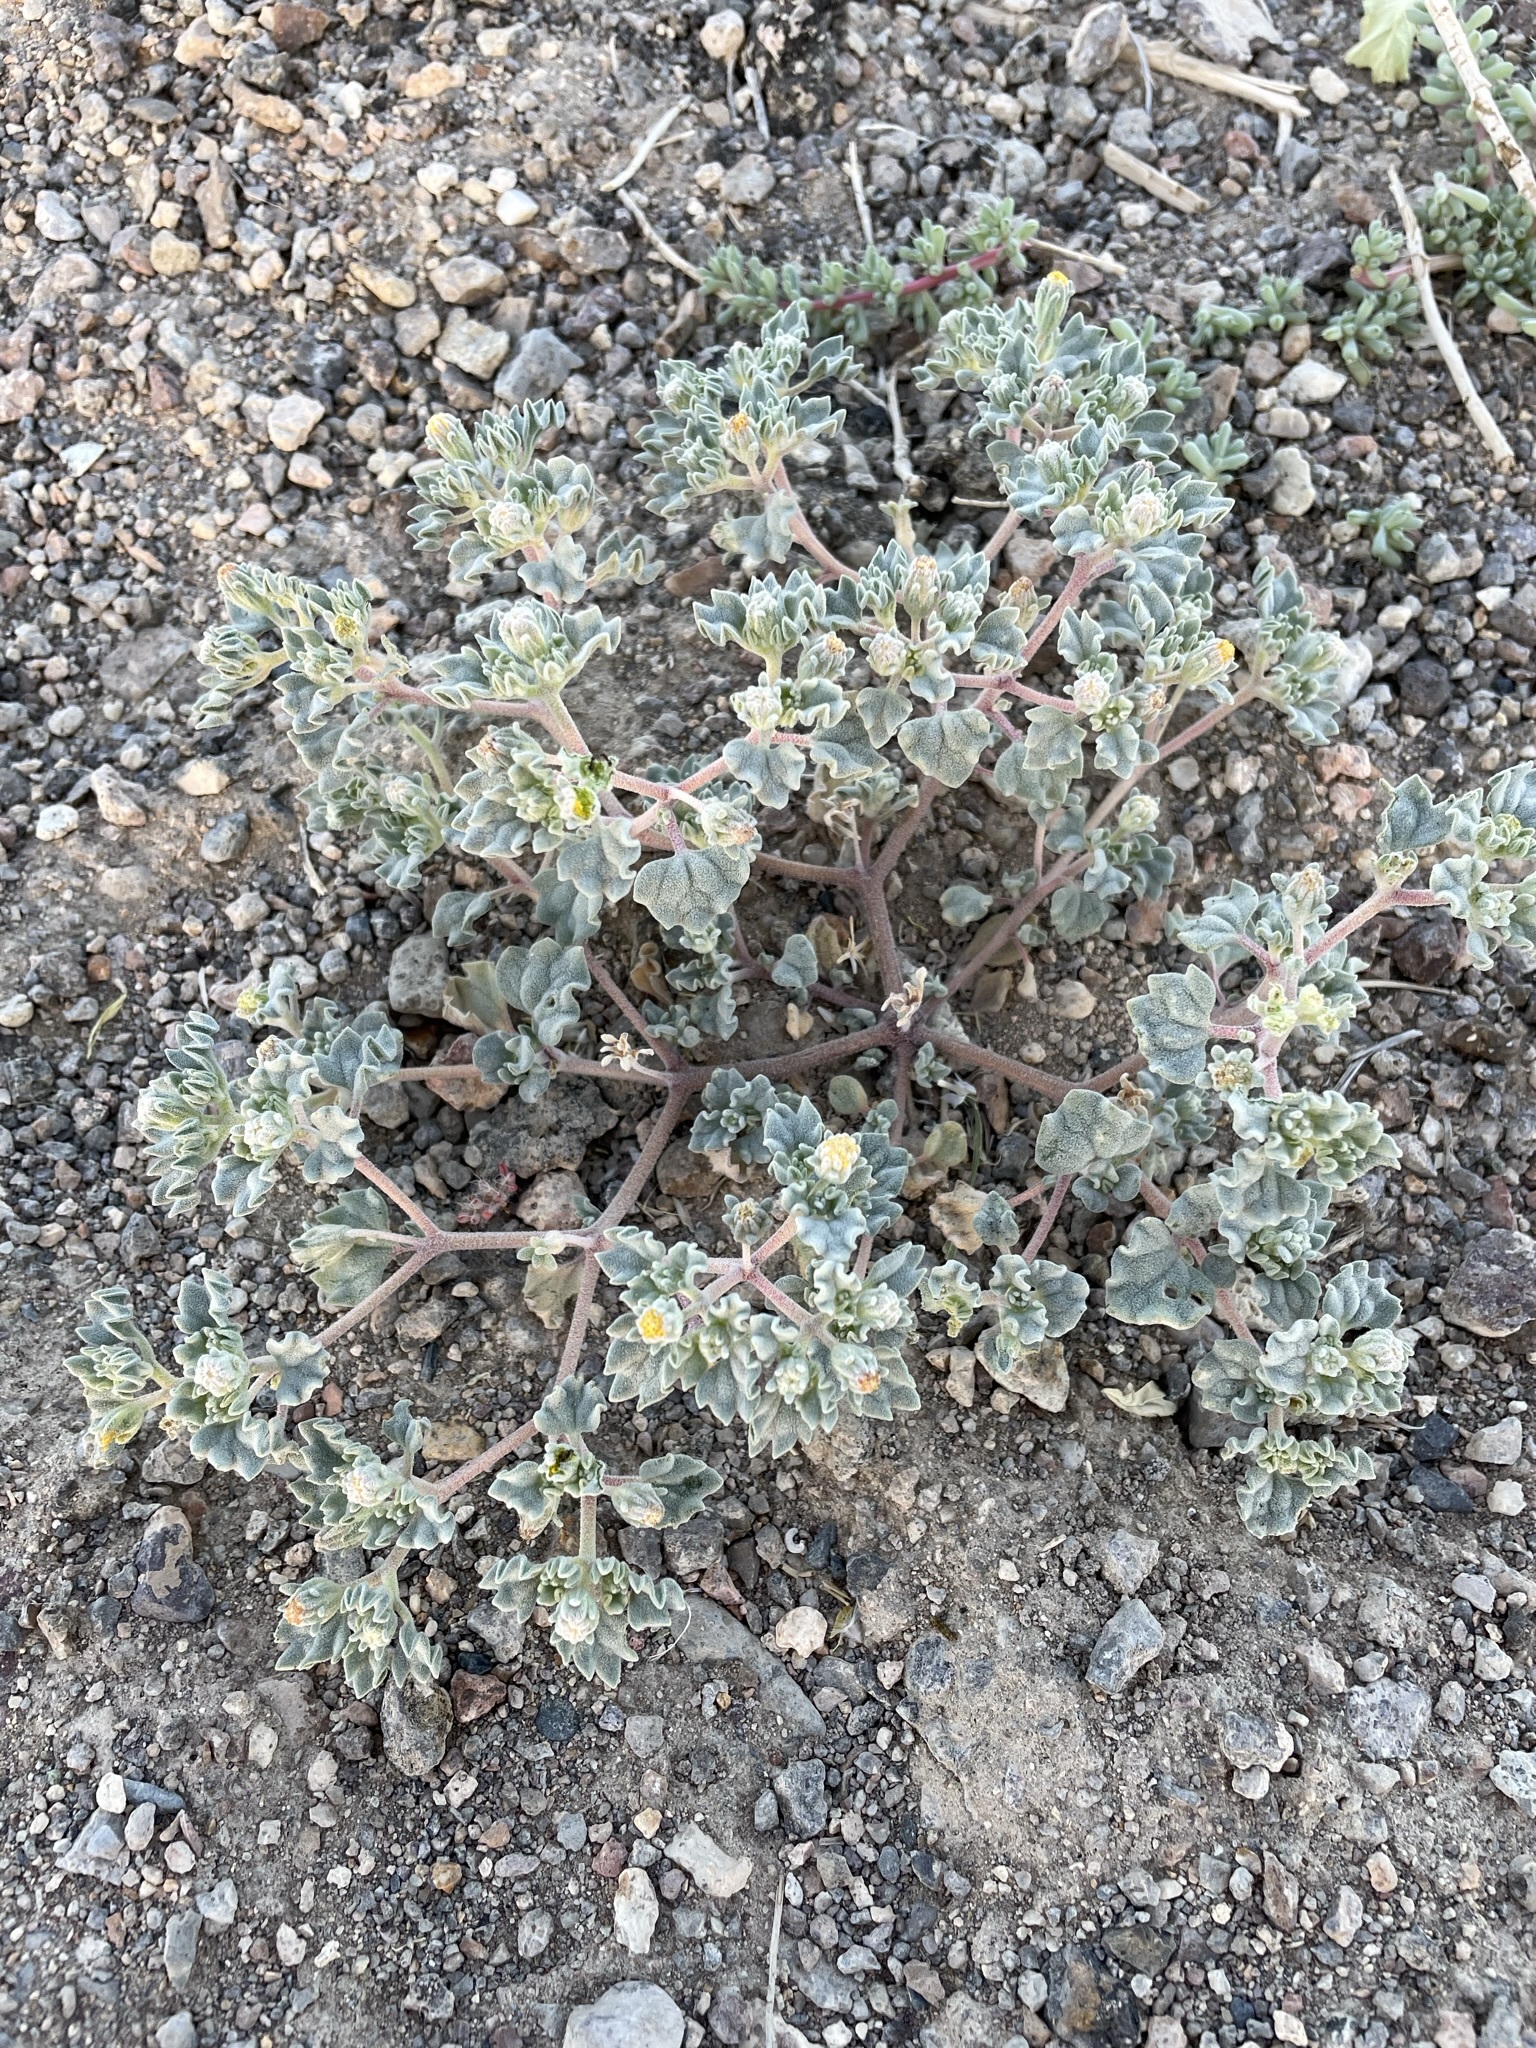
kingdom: Plantae
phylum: Tracheophyta
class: Magnoliopsida
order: Asterales
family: Asteraceae
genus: Psathyrotes
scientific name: Psathyrotes annua
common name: Mealy rosettes
